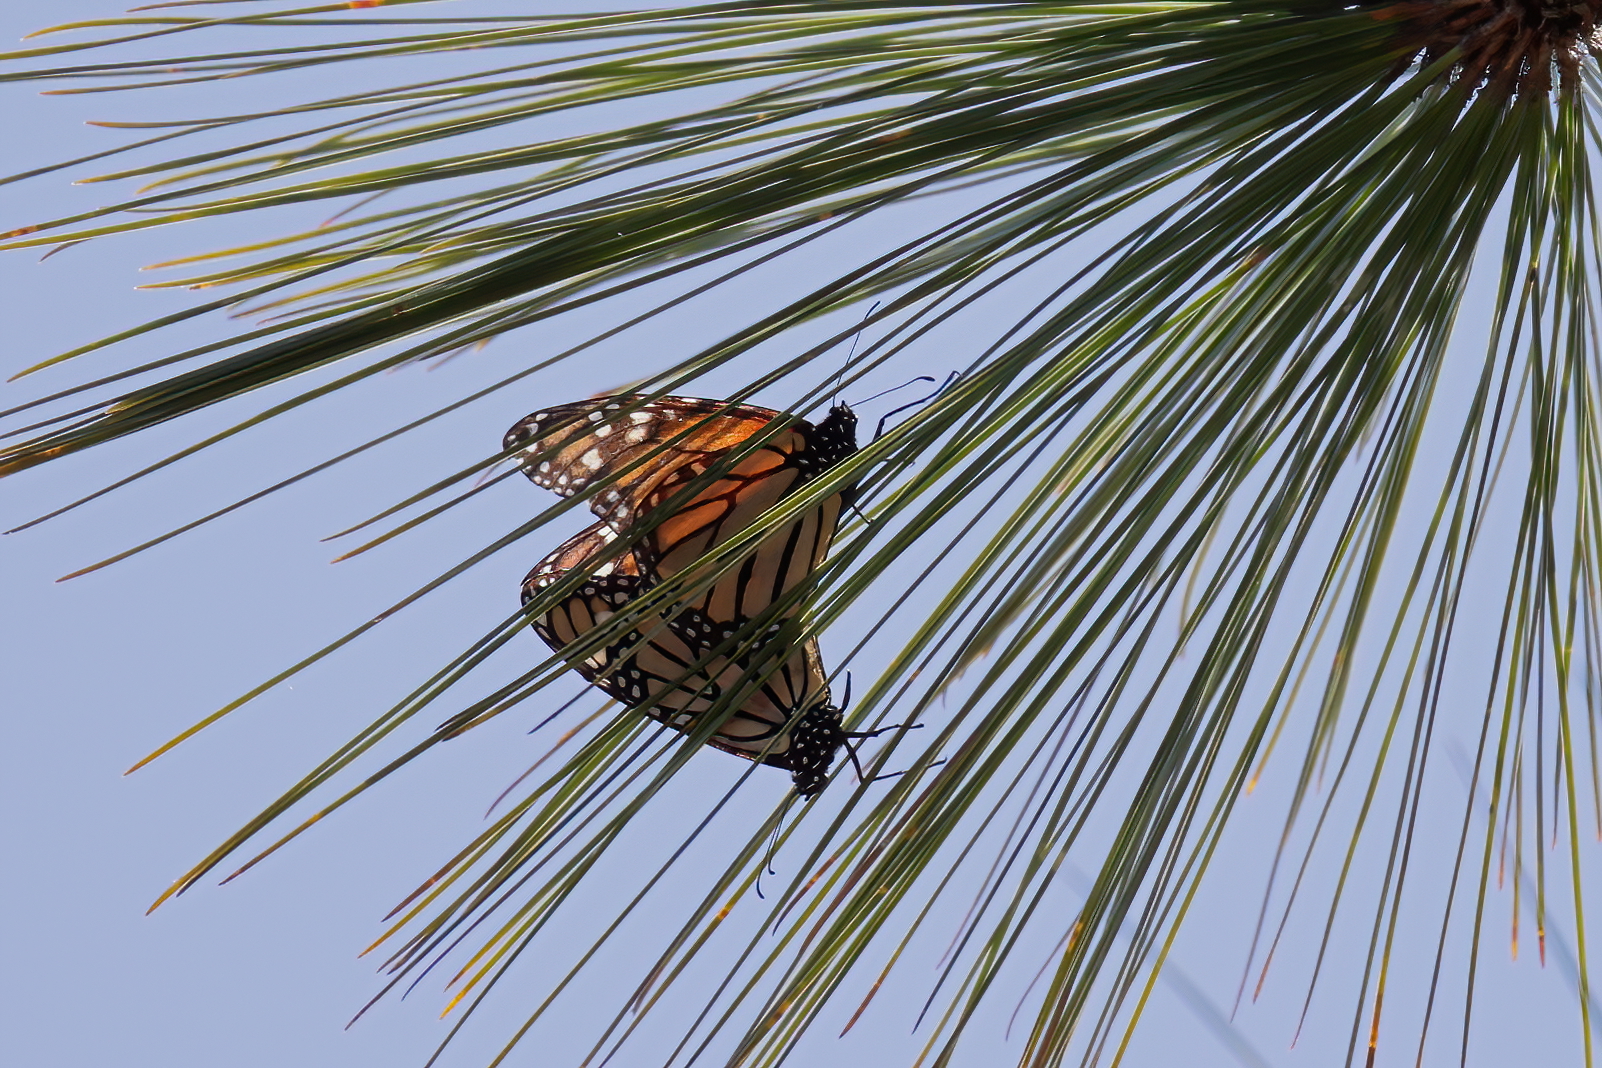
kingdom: Animalia
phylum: Arthropoda
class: Insecta
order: Lepidoptera
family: Nymphalidae
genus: Danaus
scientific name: Danaus plexippus
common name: Monarch
